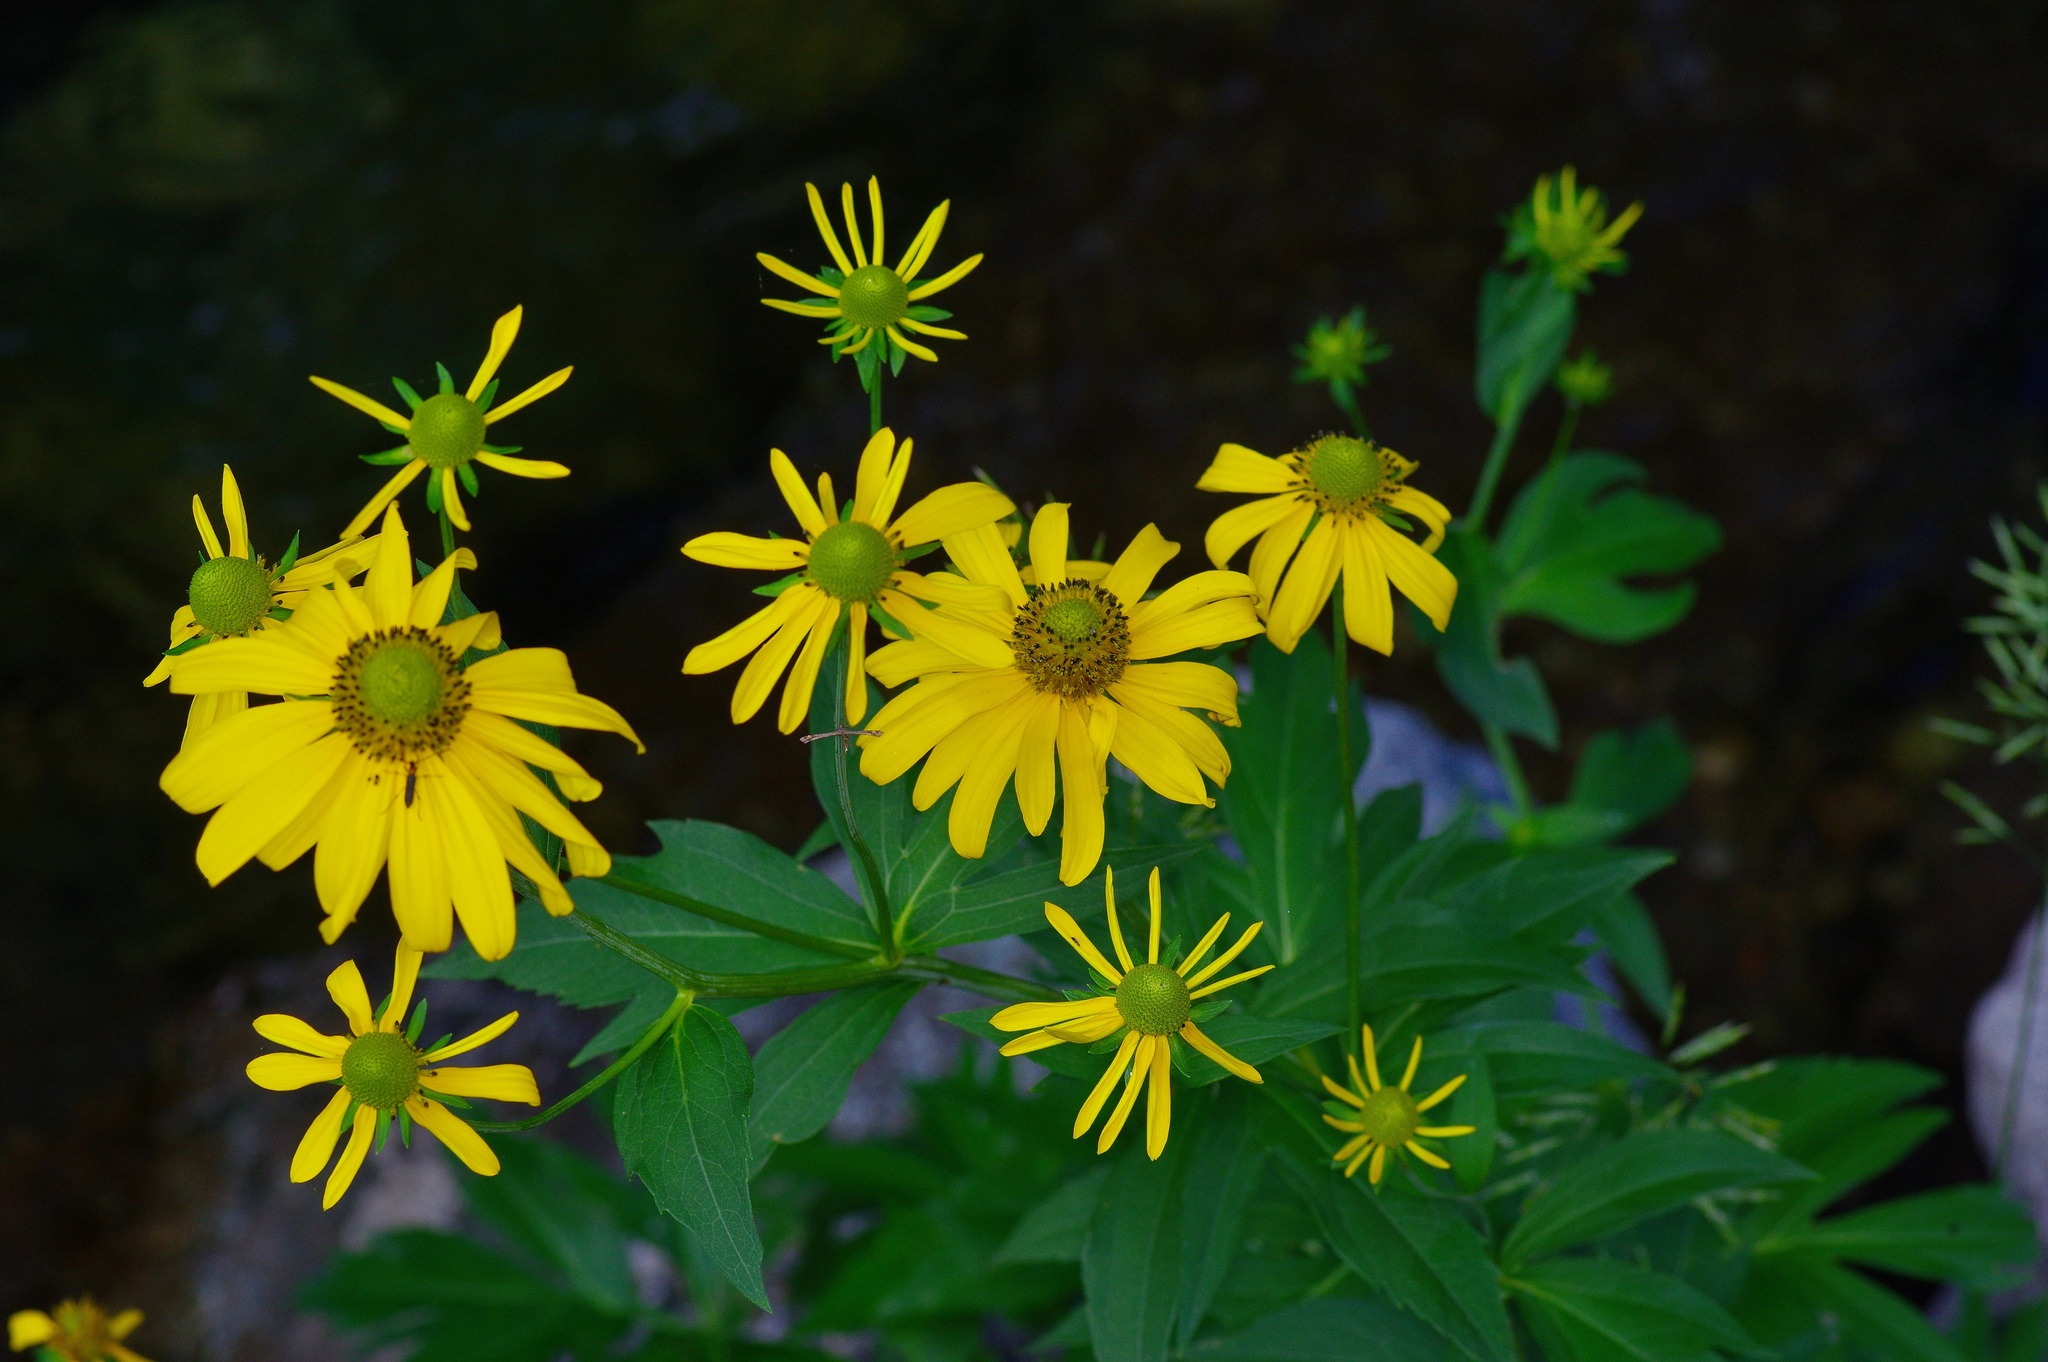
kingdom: Plantae
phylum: Tracheophyta
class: Magnoliopsida
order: Asterales
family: Asteraceae
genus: Rudbeckia
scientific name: Rudbeckia laciniata
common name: Coneflower
